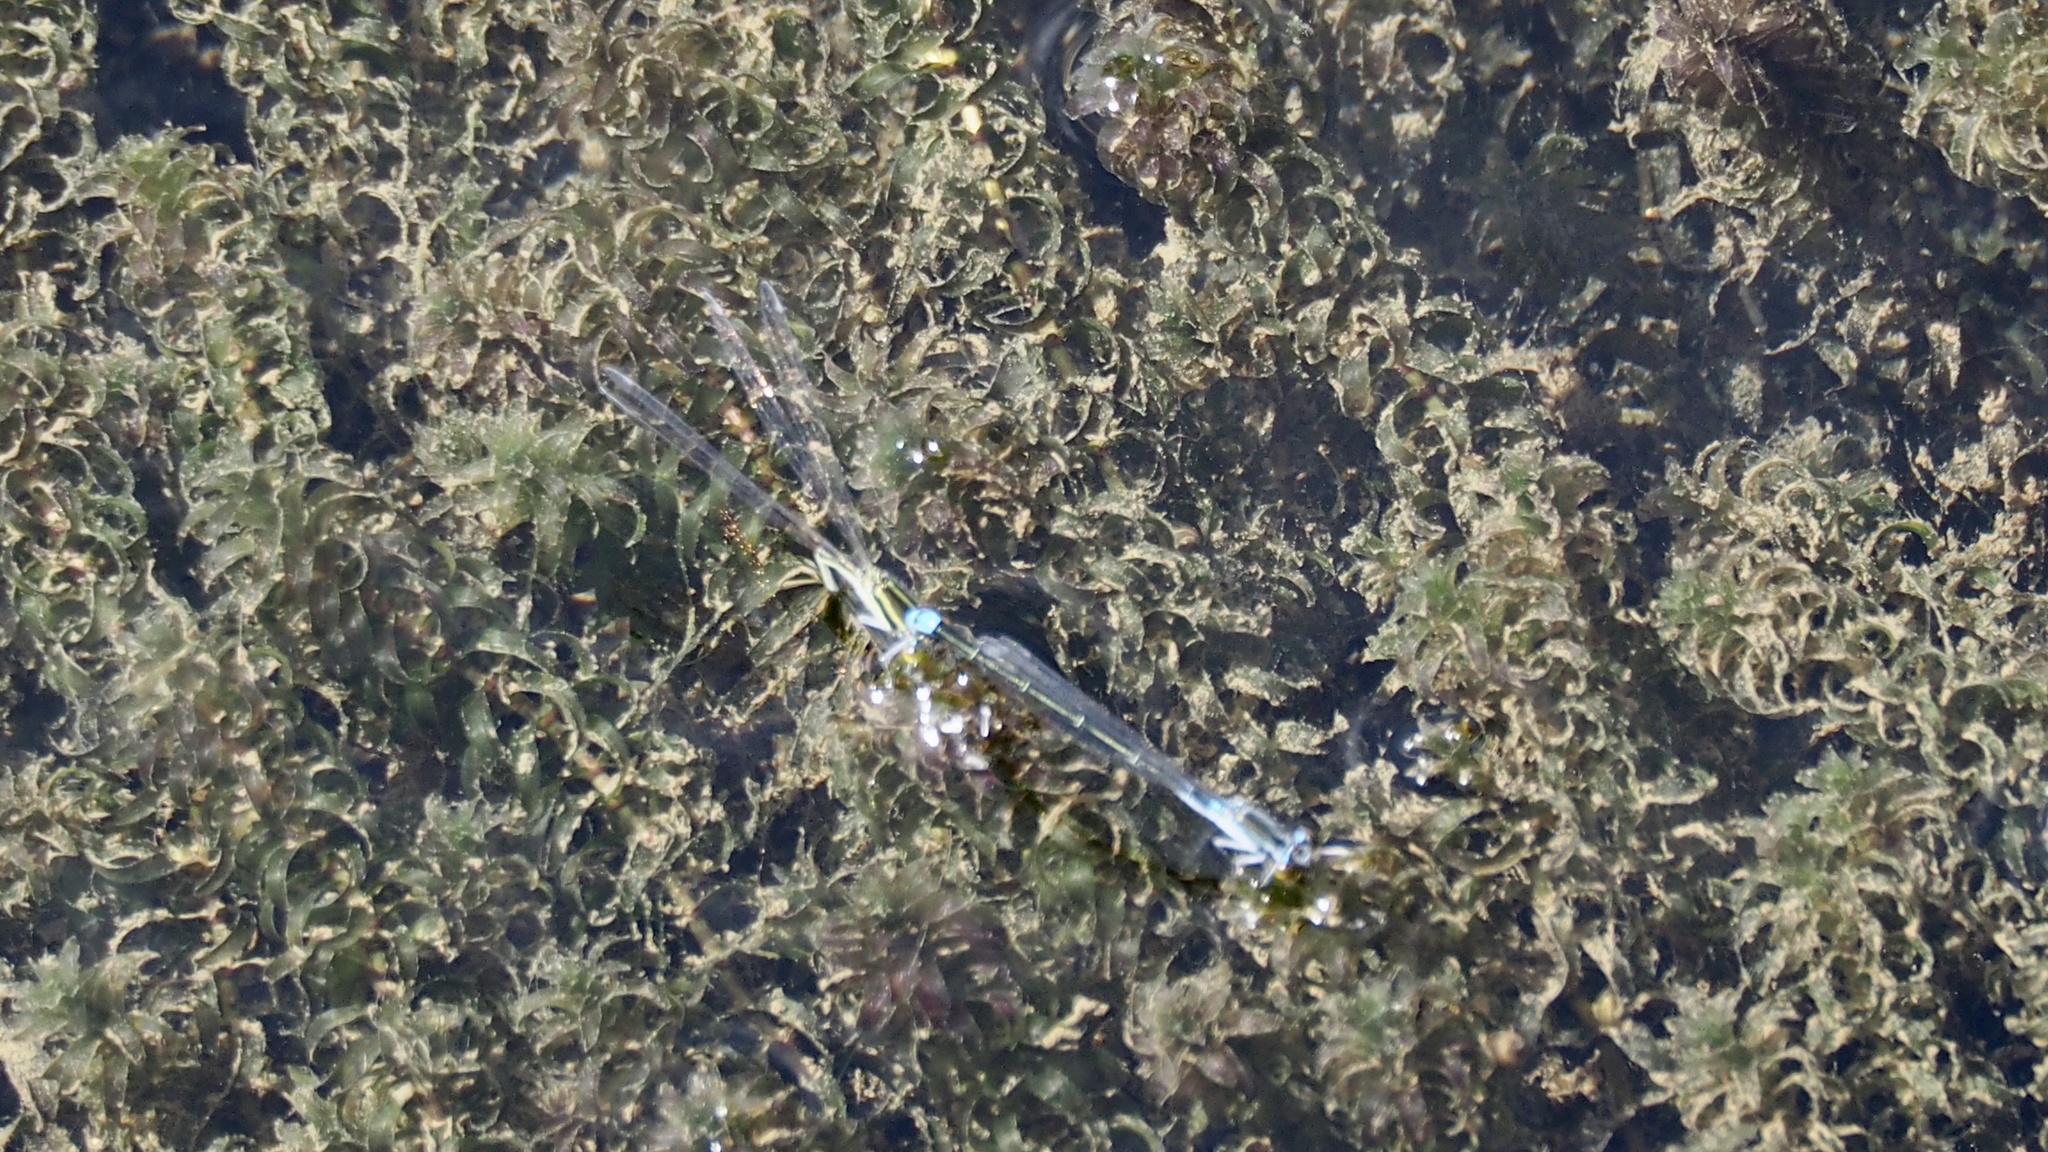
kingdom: Animalia
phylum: Arthropoda
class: Insecta
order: Odonata
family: Coenagrionidae
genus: Paracercion
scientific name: Paracercion calamorum
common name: Dusky lilysquatter
